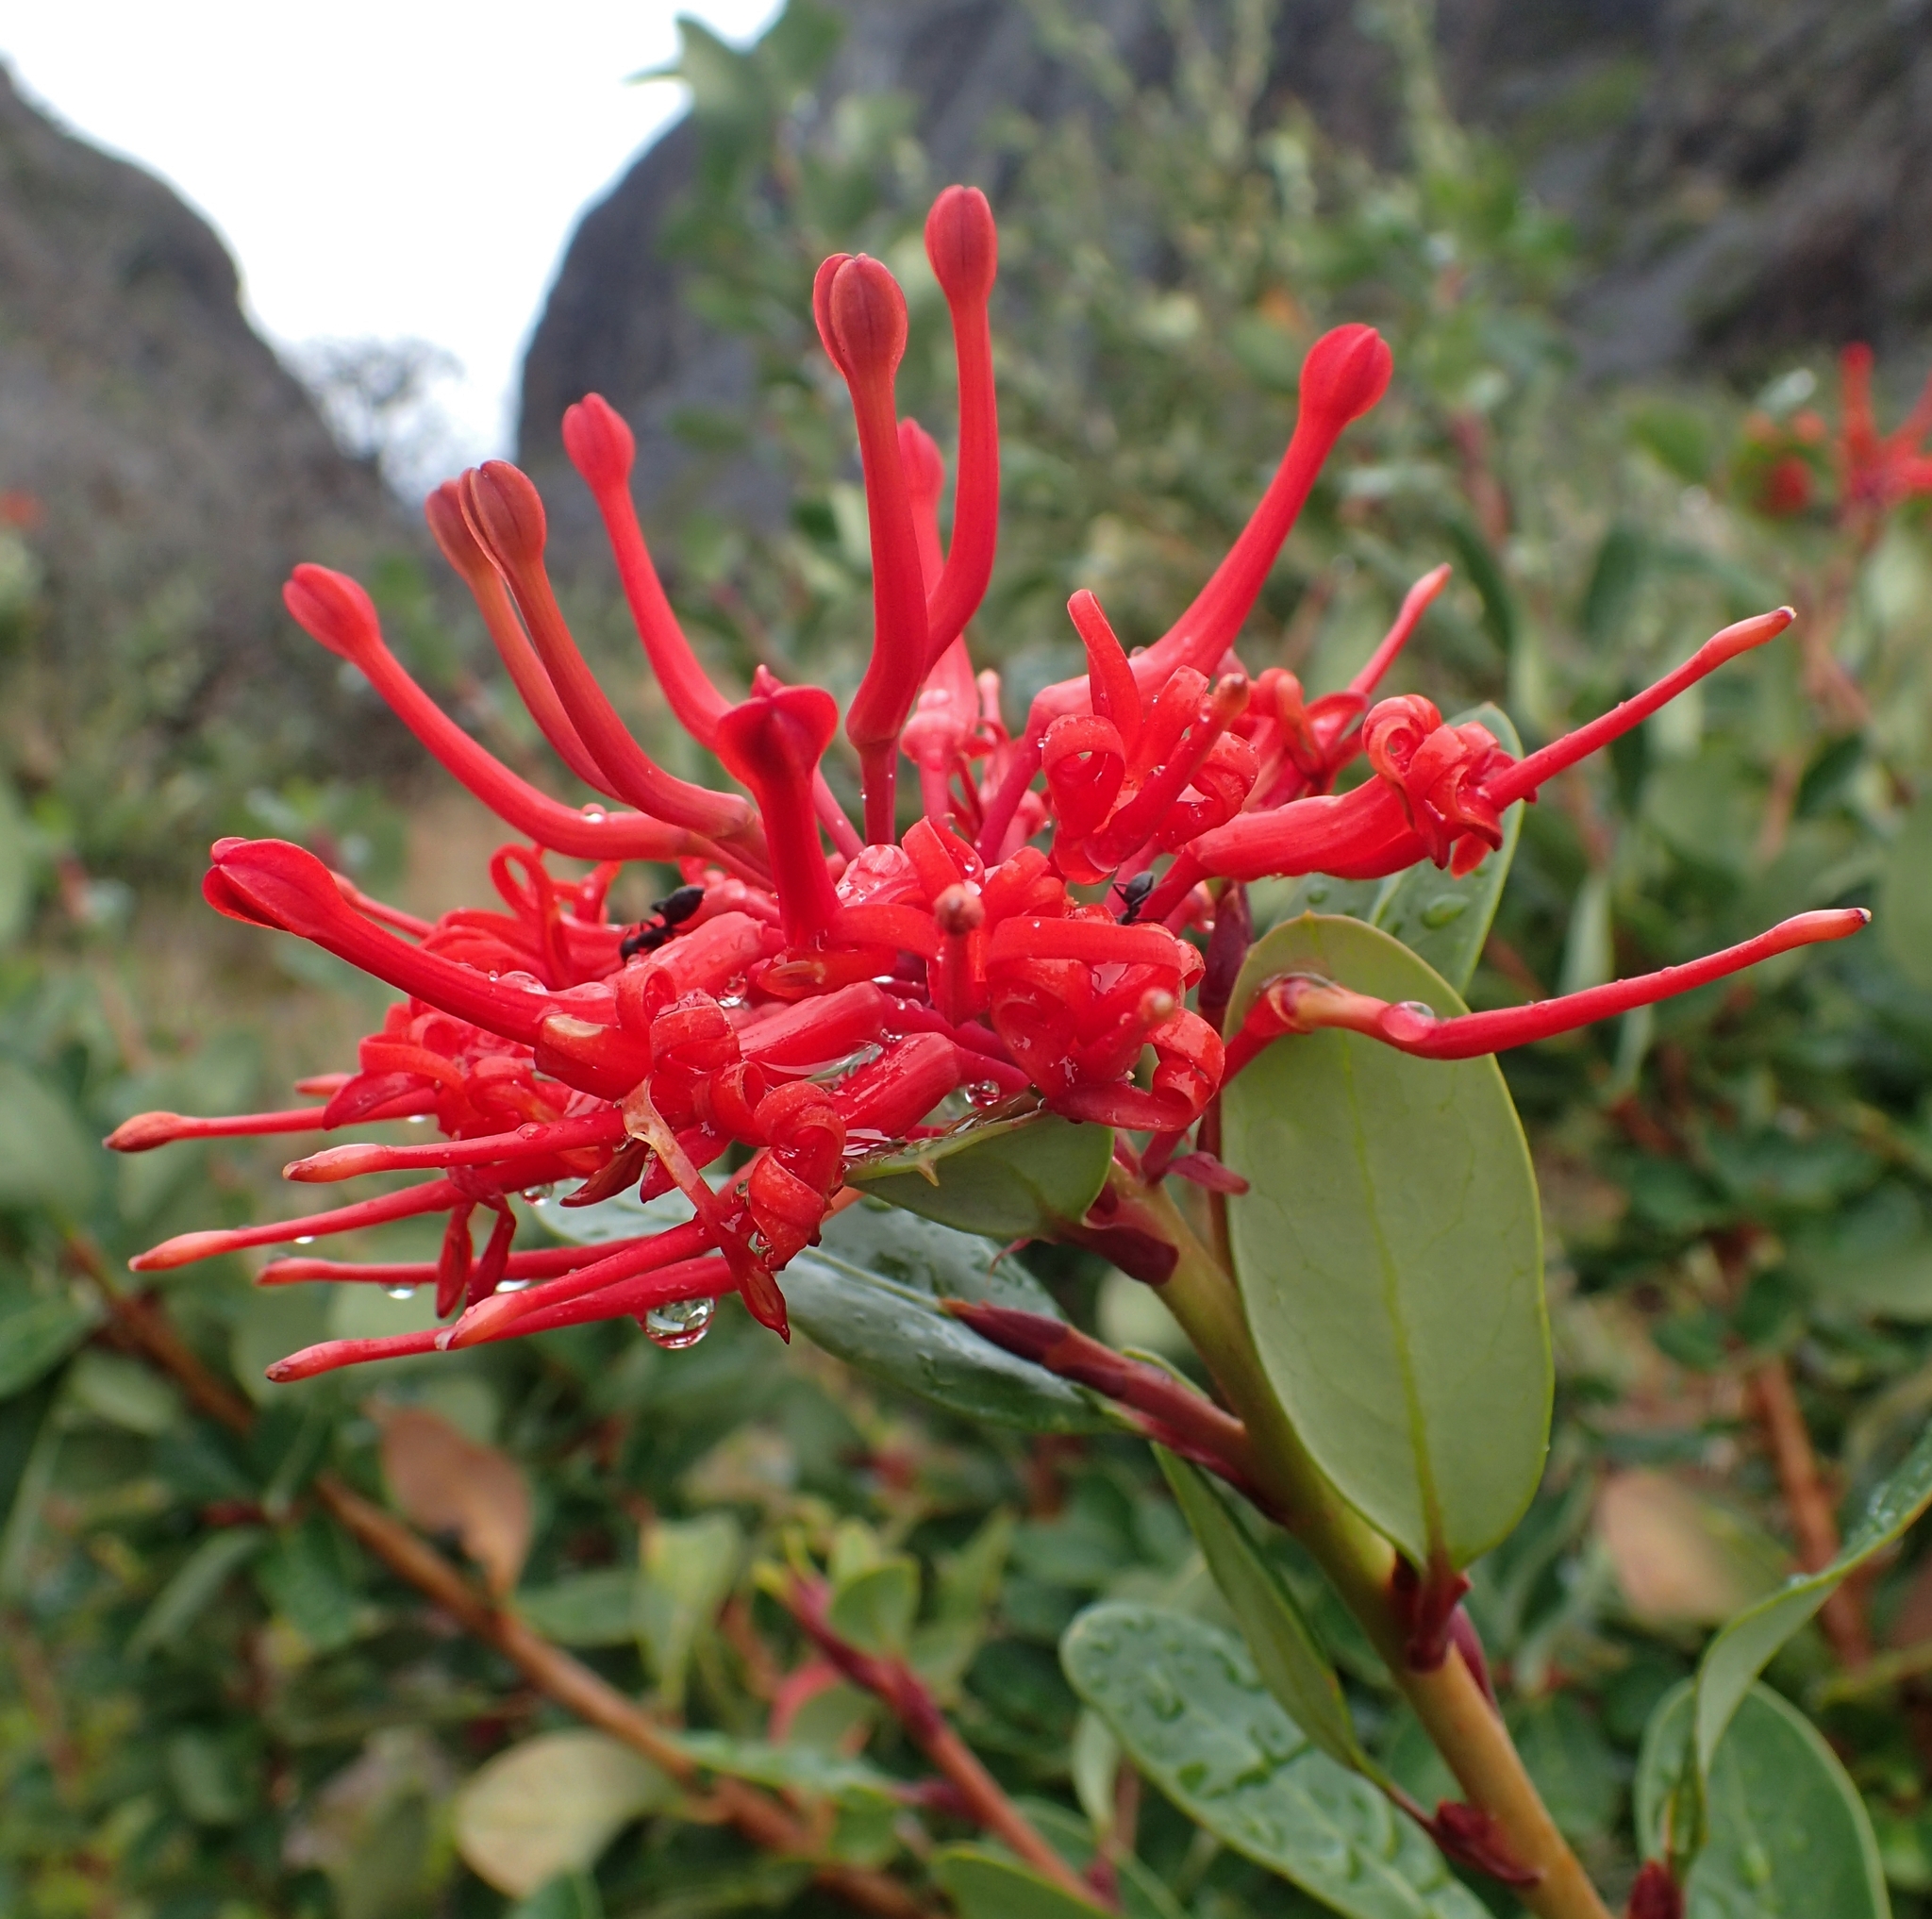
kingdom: Plantae
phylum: Tracheophyta
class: Magnoliopsida
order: Proteales
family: Proteaceae
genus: Embothrium
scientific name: Embothrium coccineum
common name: Chilean firebush
